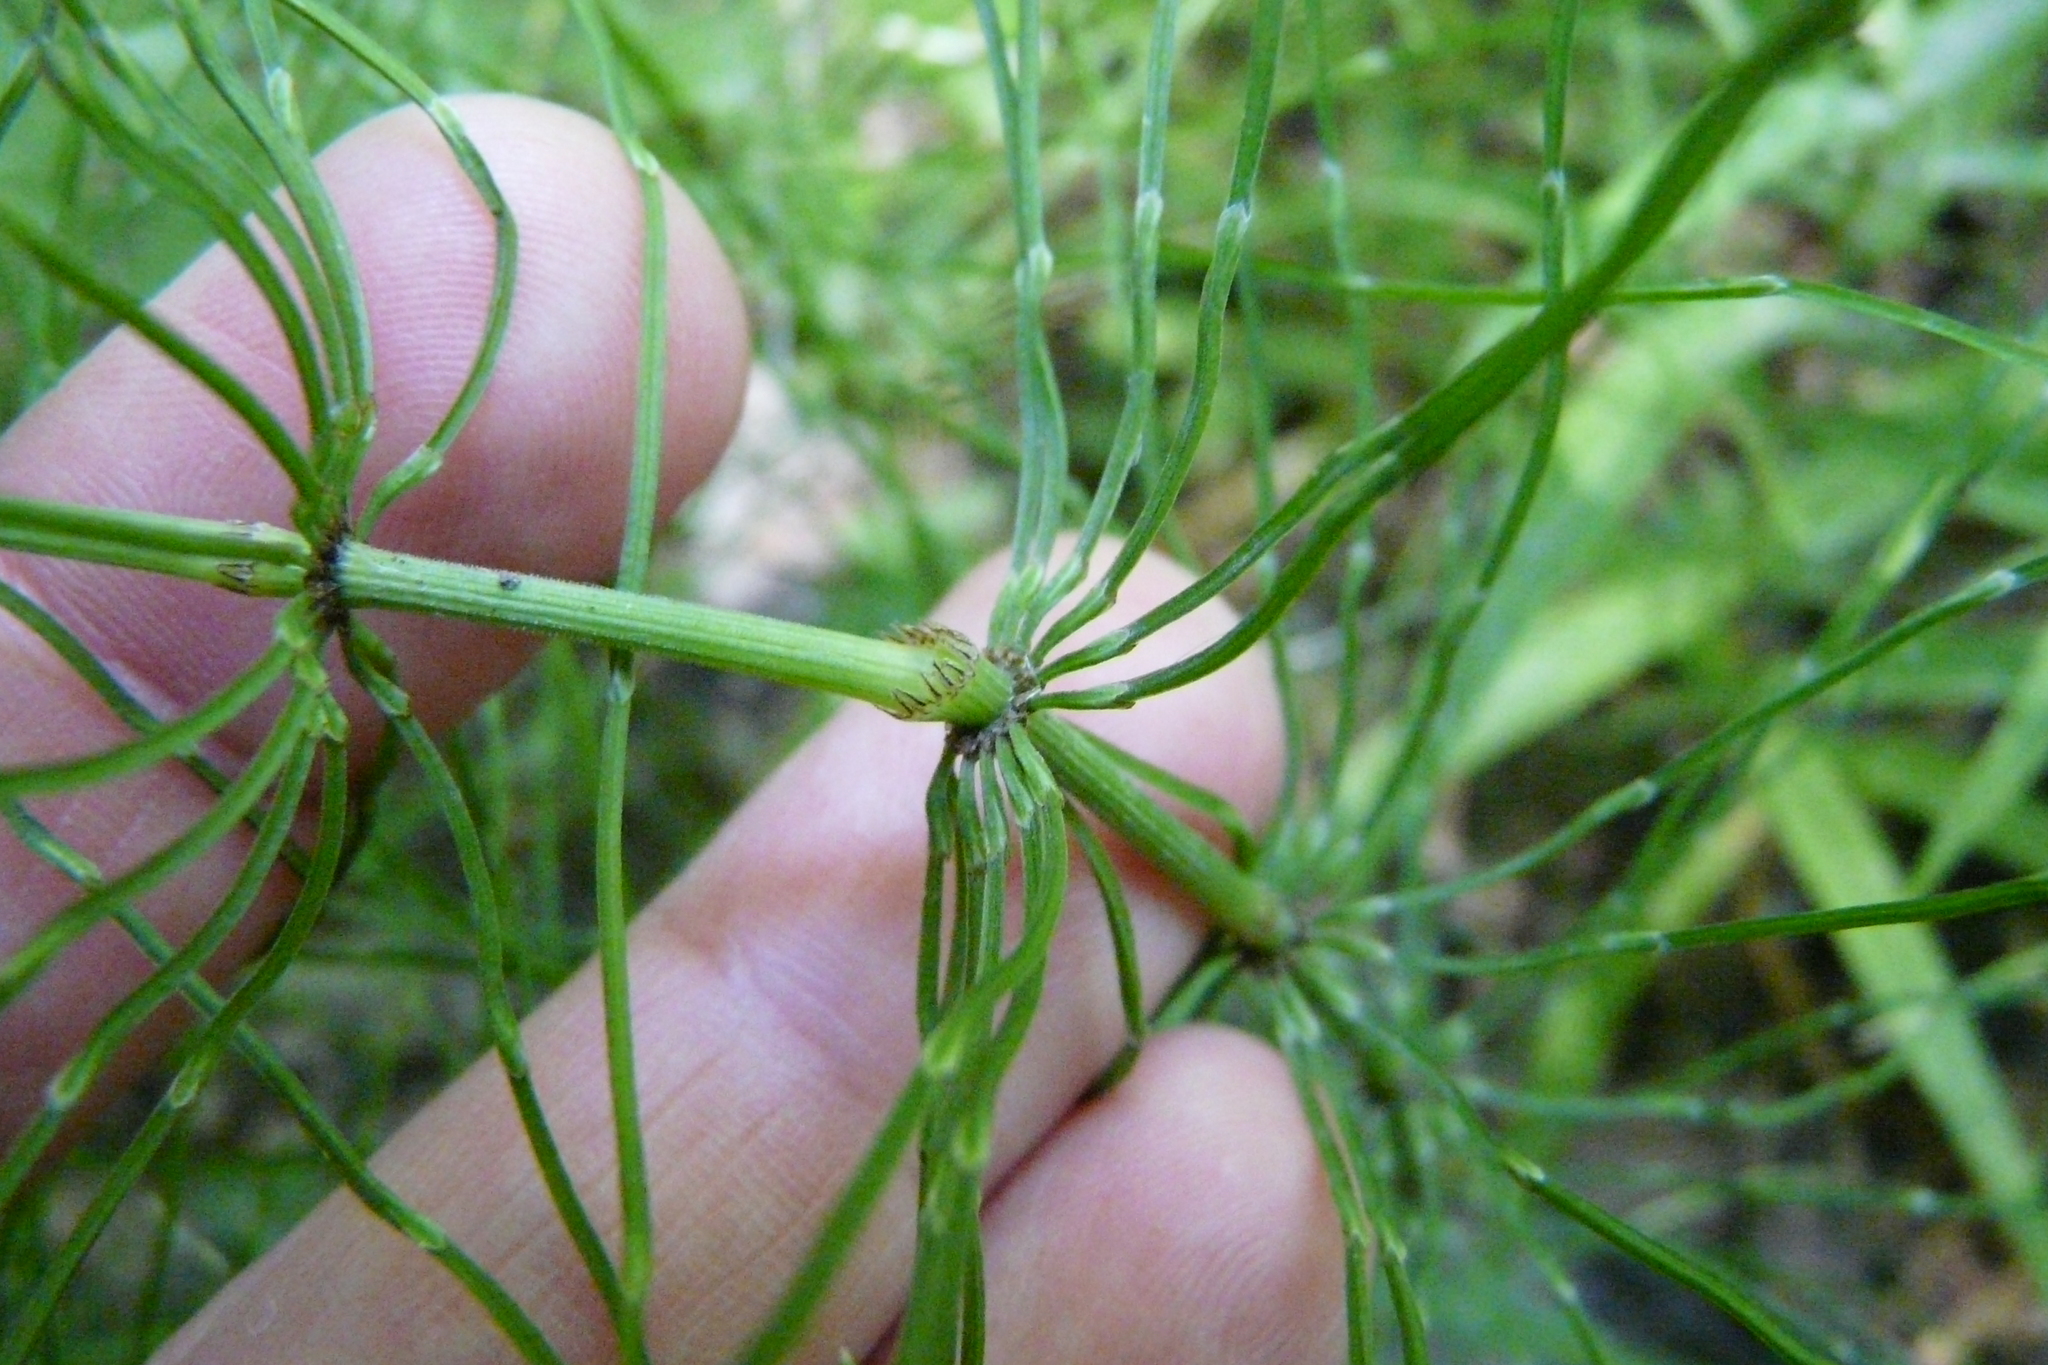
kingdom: Plantae
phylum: Tracheophyta
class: Polypodiopsida
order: Equisetales
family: Equisetaceae
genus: Equisetum
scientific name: Equisetum pratense
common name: Meadow horsetail
